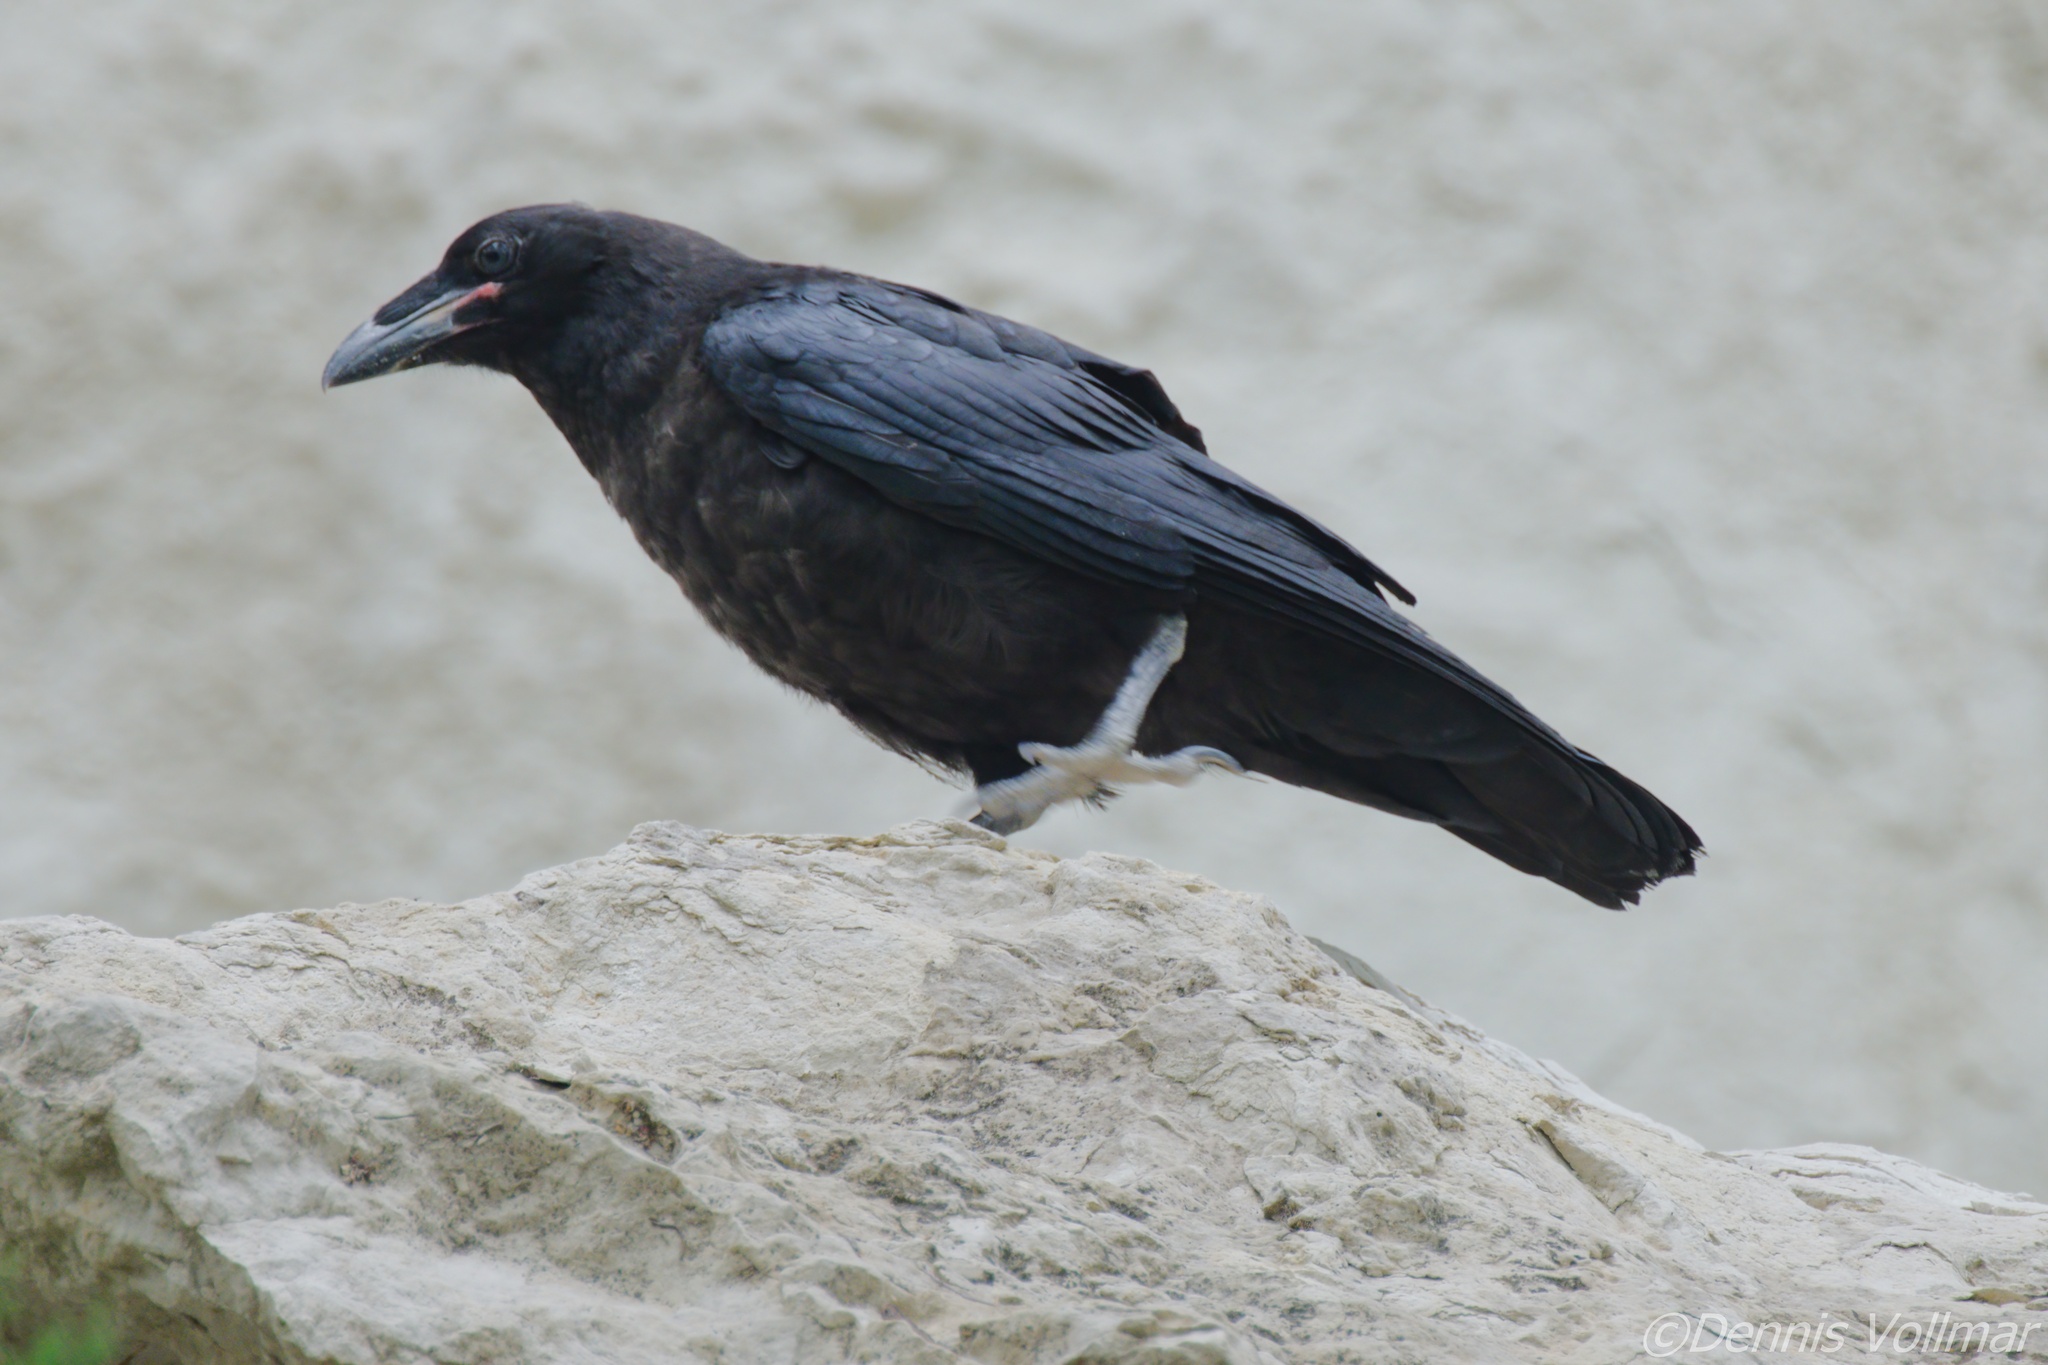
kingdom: Animalia
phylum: Chordata
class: Aves
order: Passeriformes
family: Corvidae
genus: Corvus
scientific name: Corvus corax
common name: Common raven
